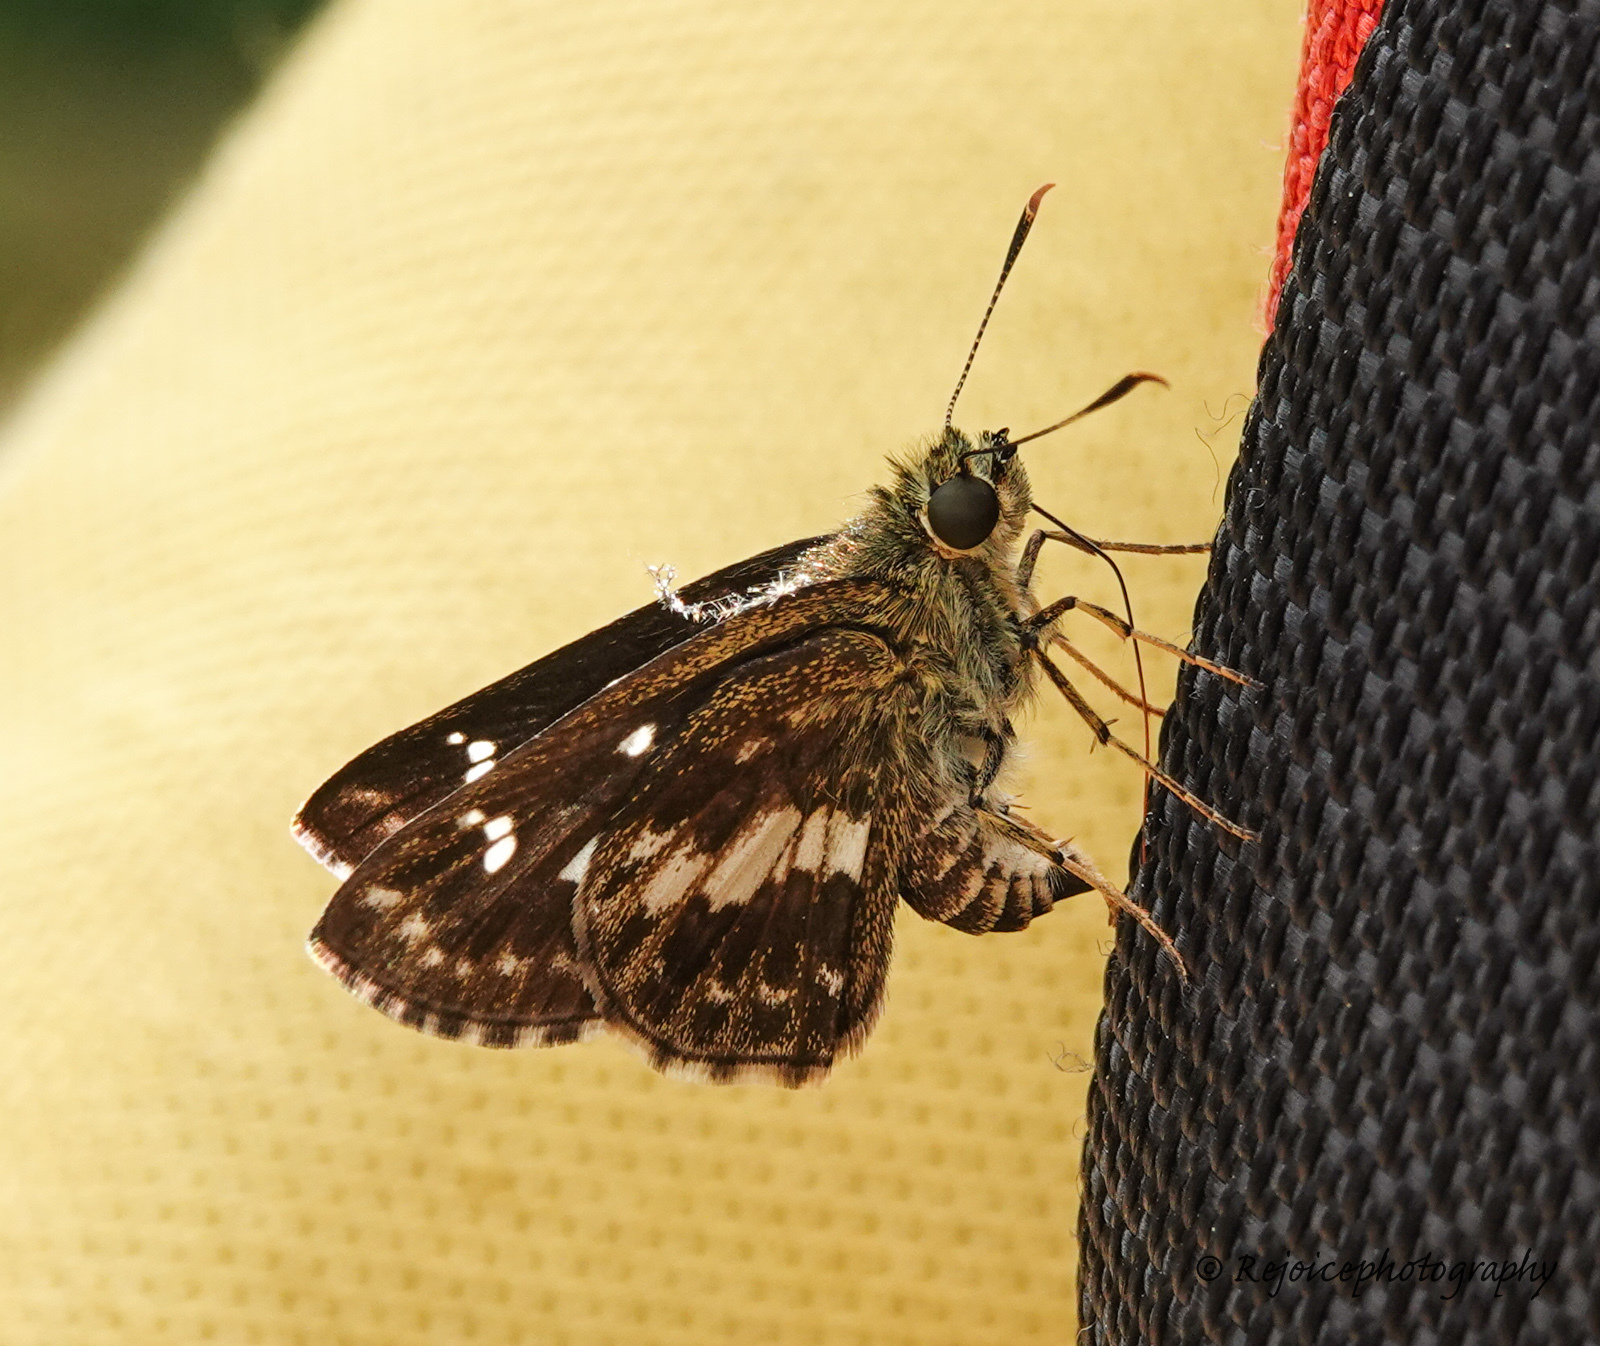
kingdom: Animalia
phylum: Arthropoda
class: Insecta
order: Lepidoptera
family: Hesperiidae
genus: Halpe
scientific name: Halpe porus
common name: Moore's ace
